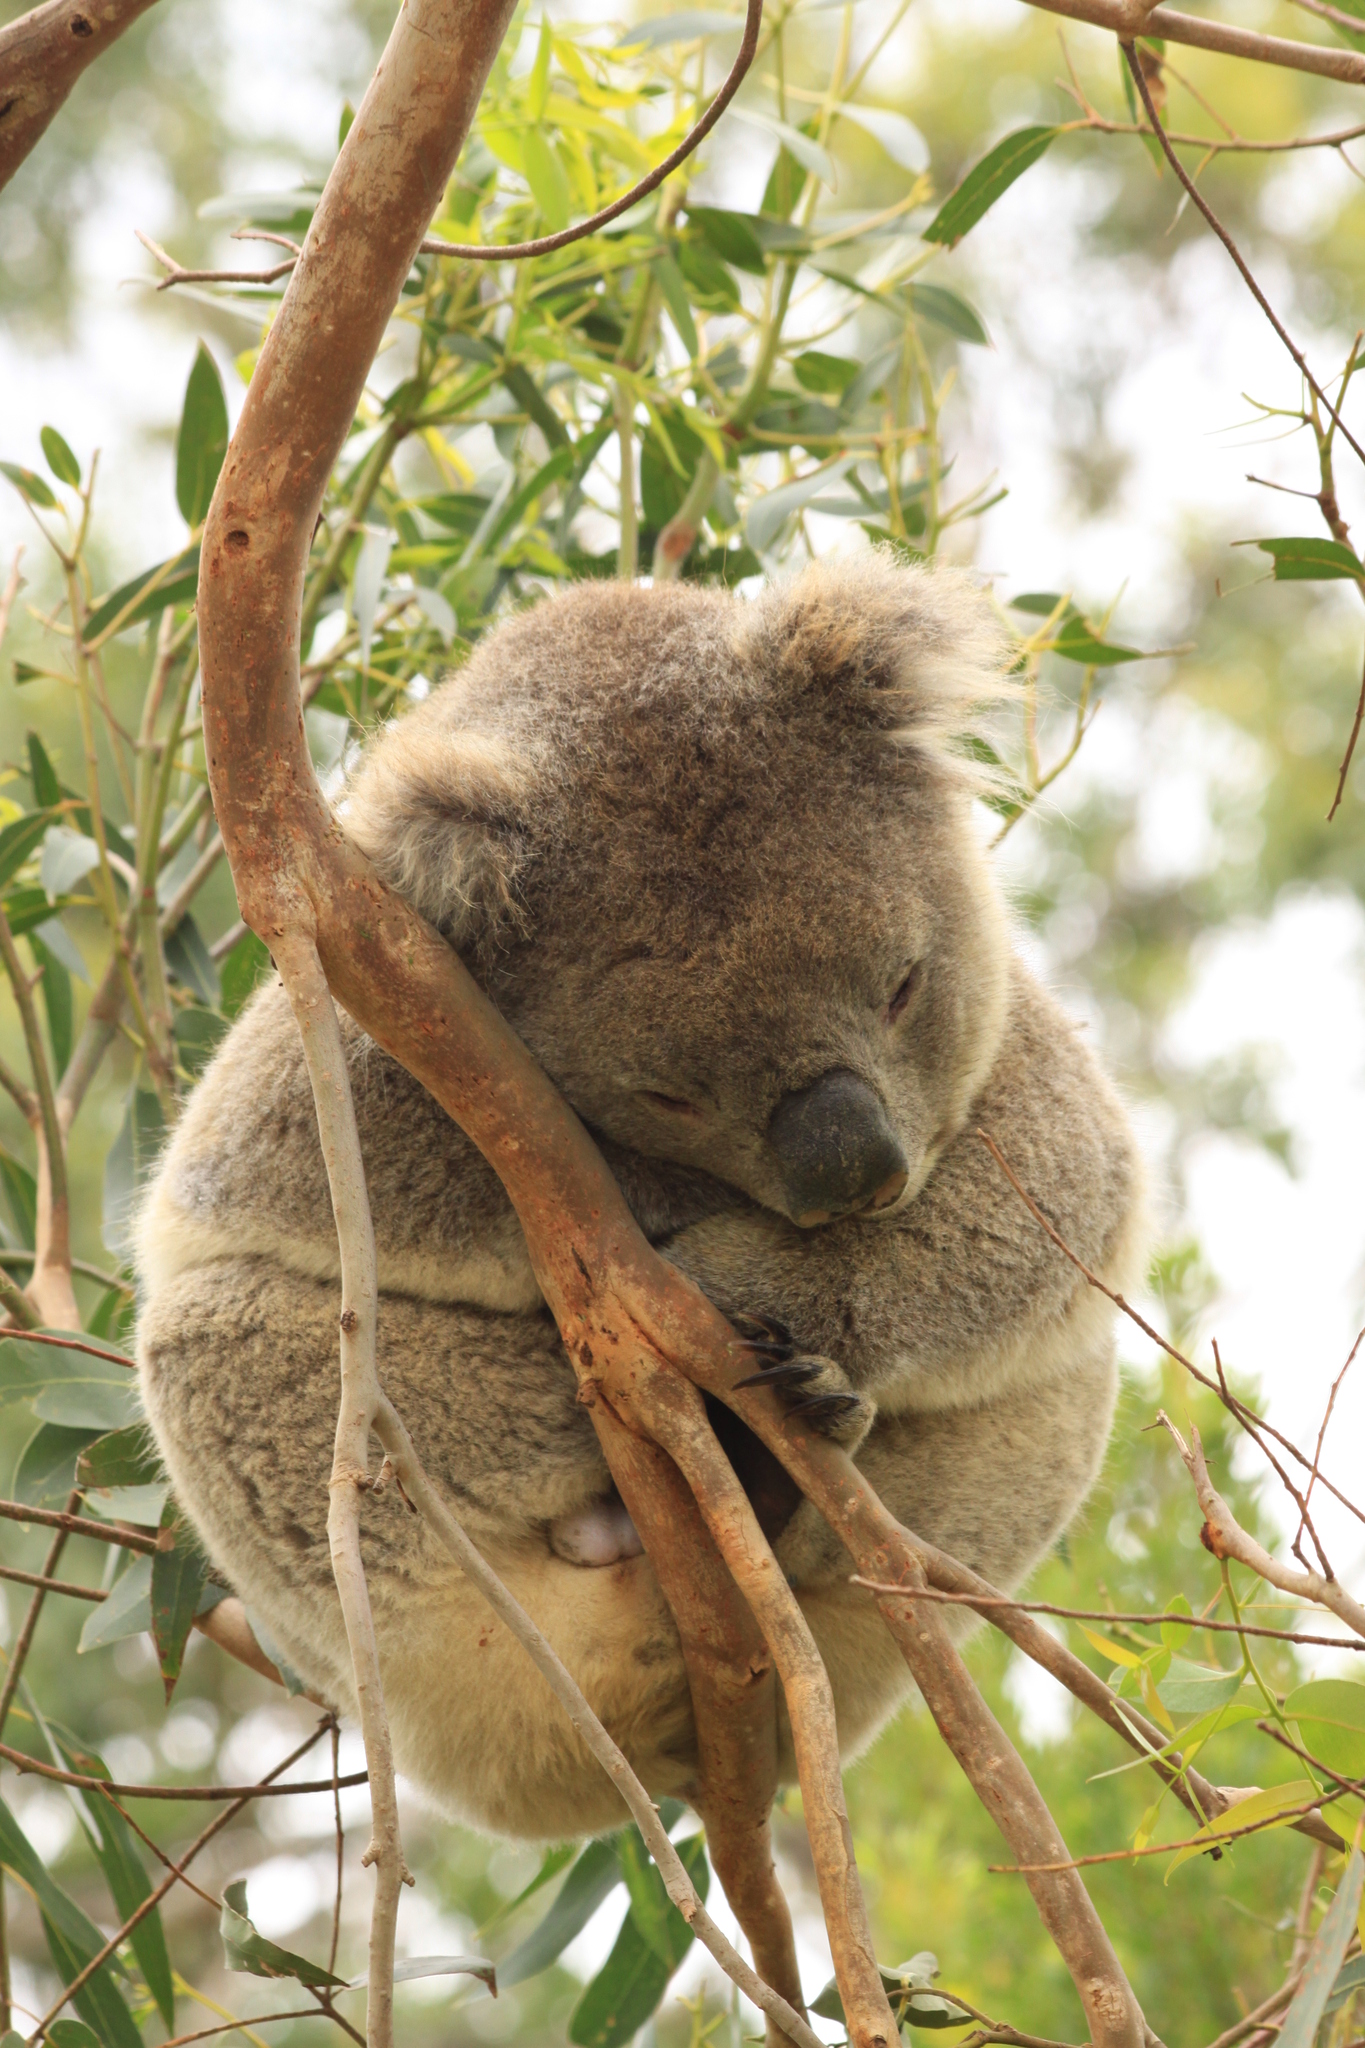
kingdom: Animalia
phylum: Chordata
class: Mammalia
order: Diprotodontia
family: Phascolarctidae
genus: Phascolarctos
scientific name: Phascolarctos cinereus
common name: Koala
